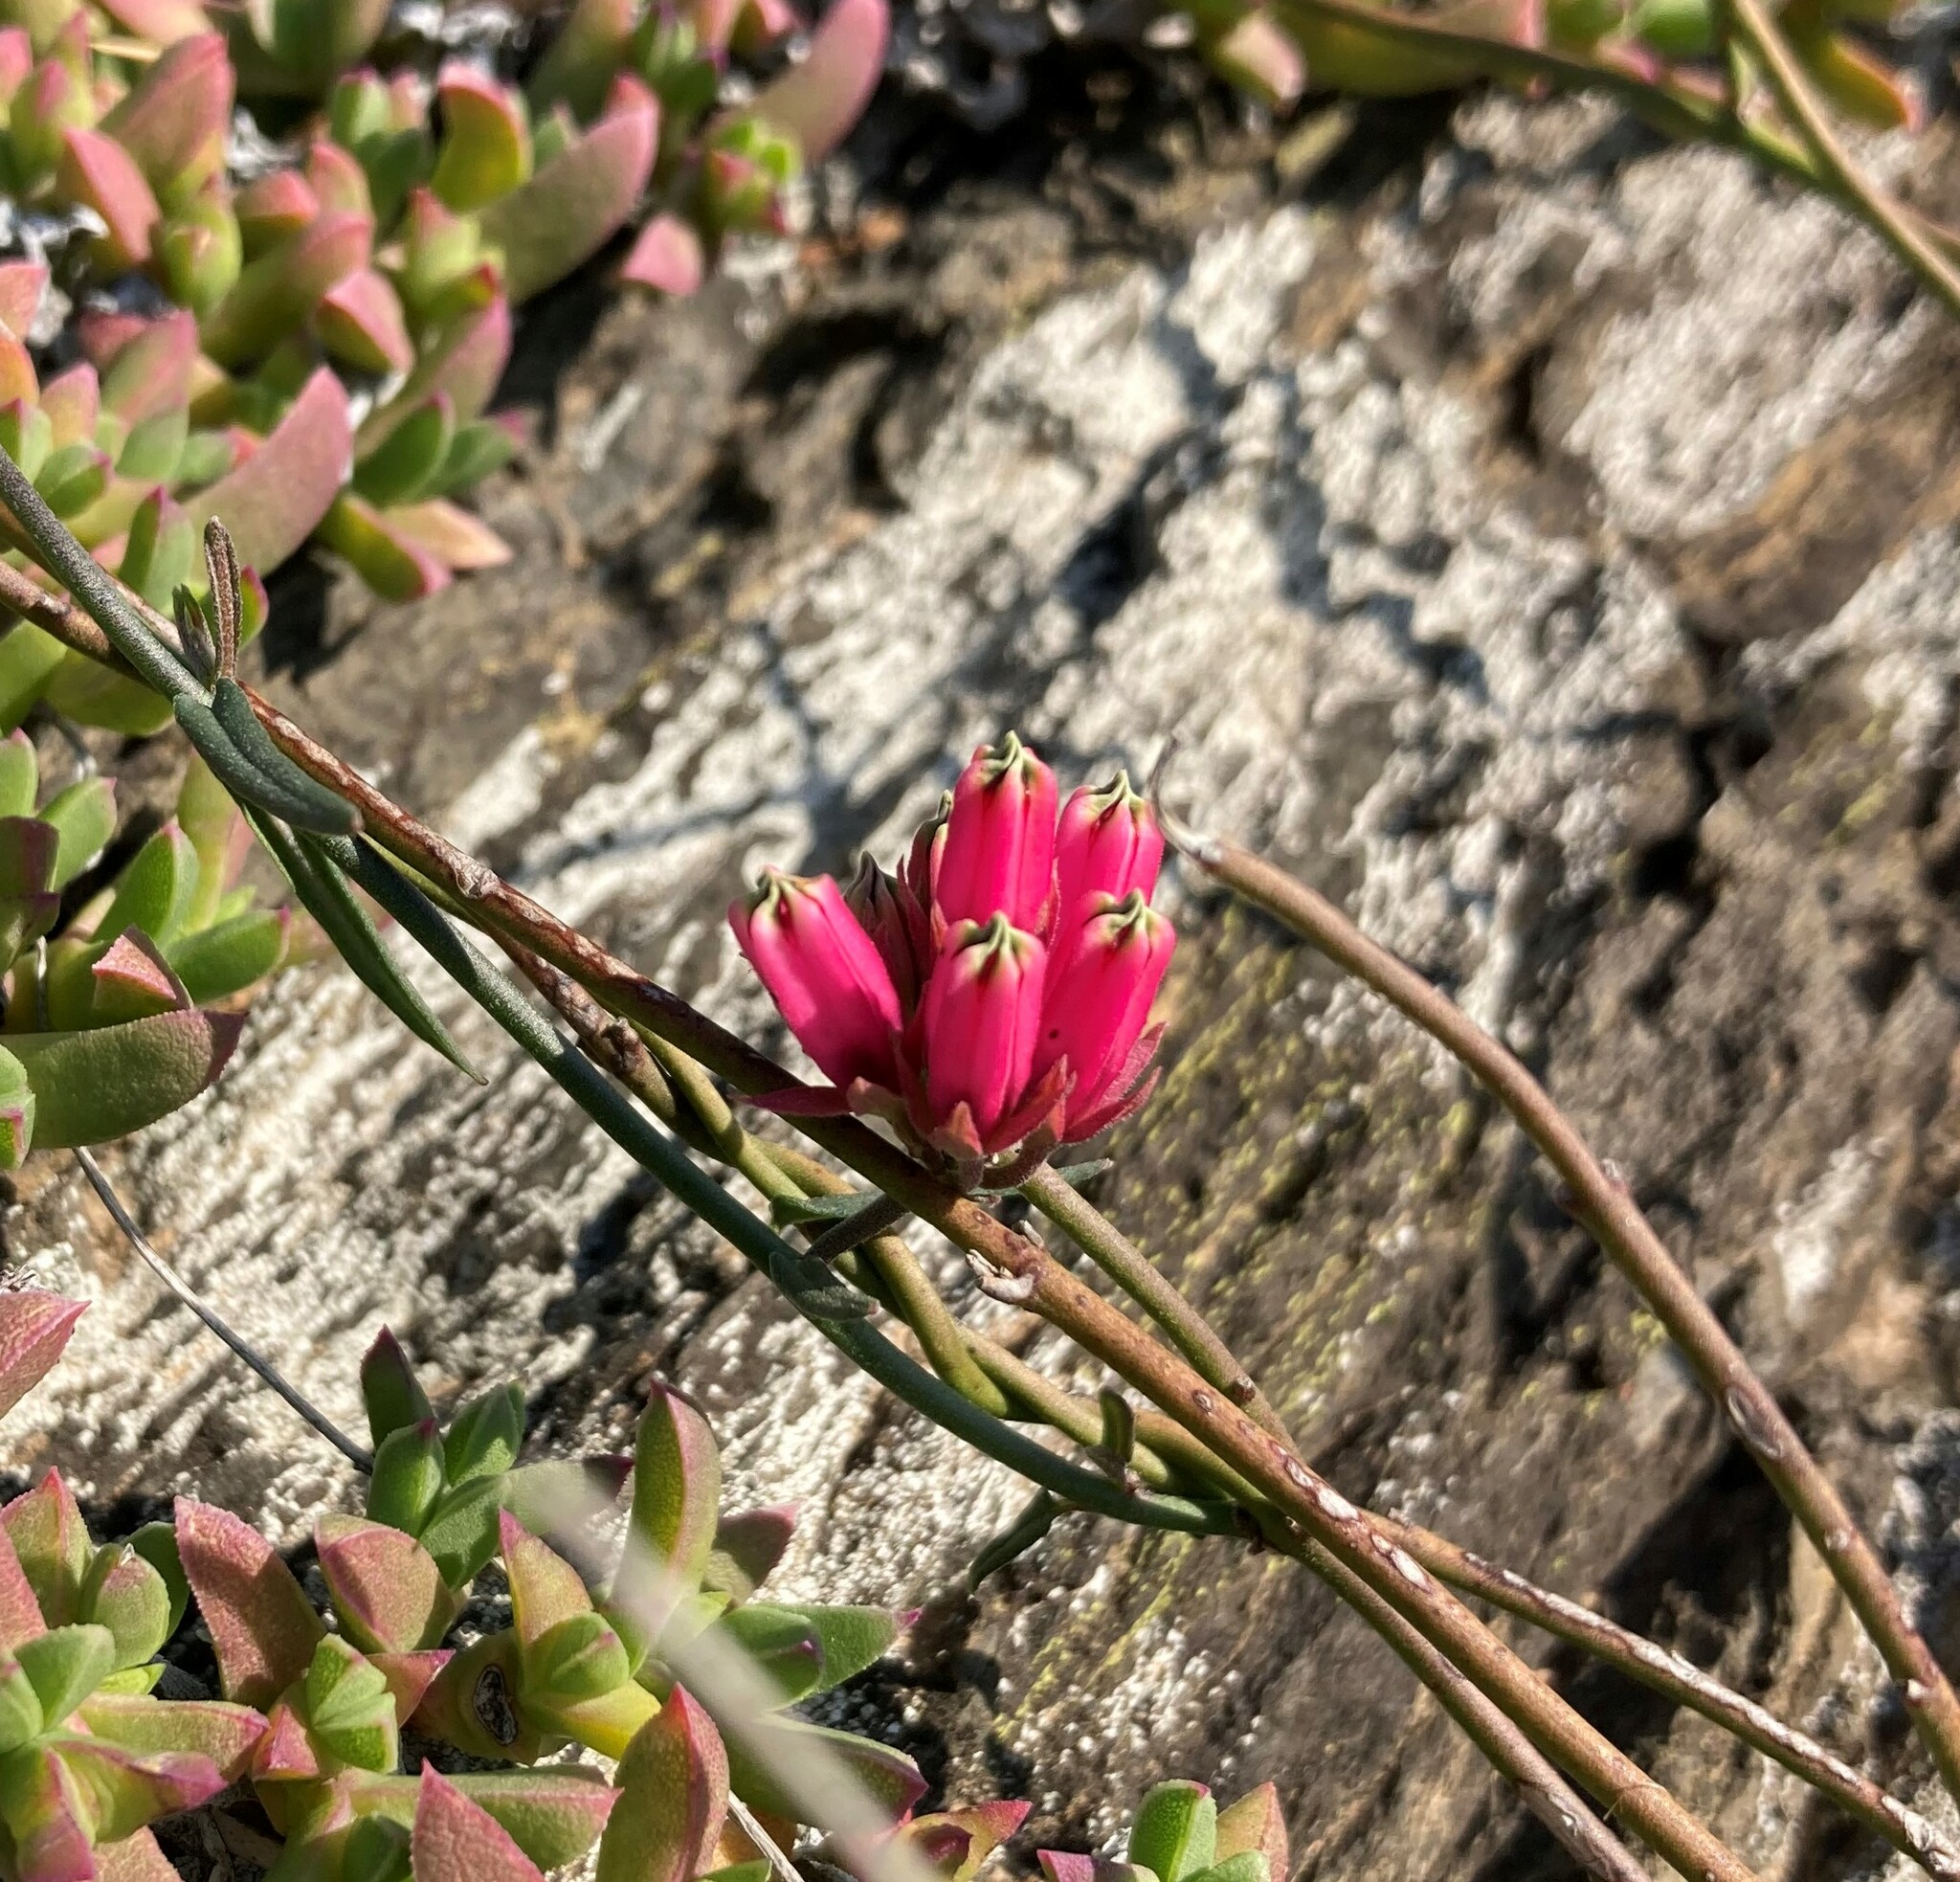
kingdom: Plantae
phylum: Tracheophyta
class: Magnoliopsida
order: Gentianales
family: Apocynaceae
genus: Microloma
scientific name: Microloma sagittatum
